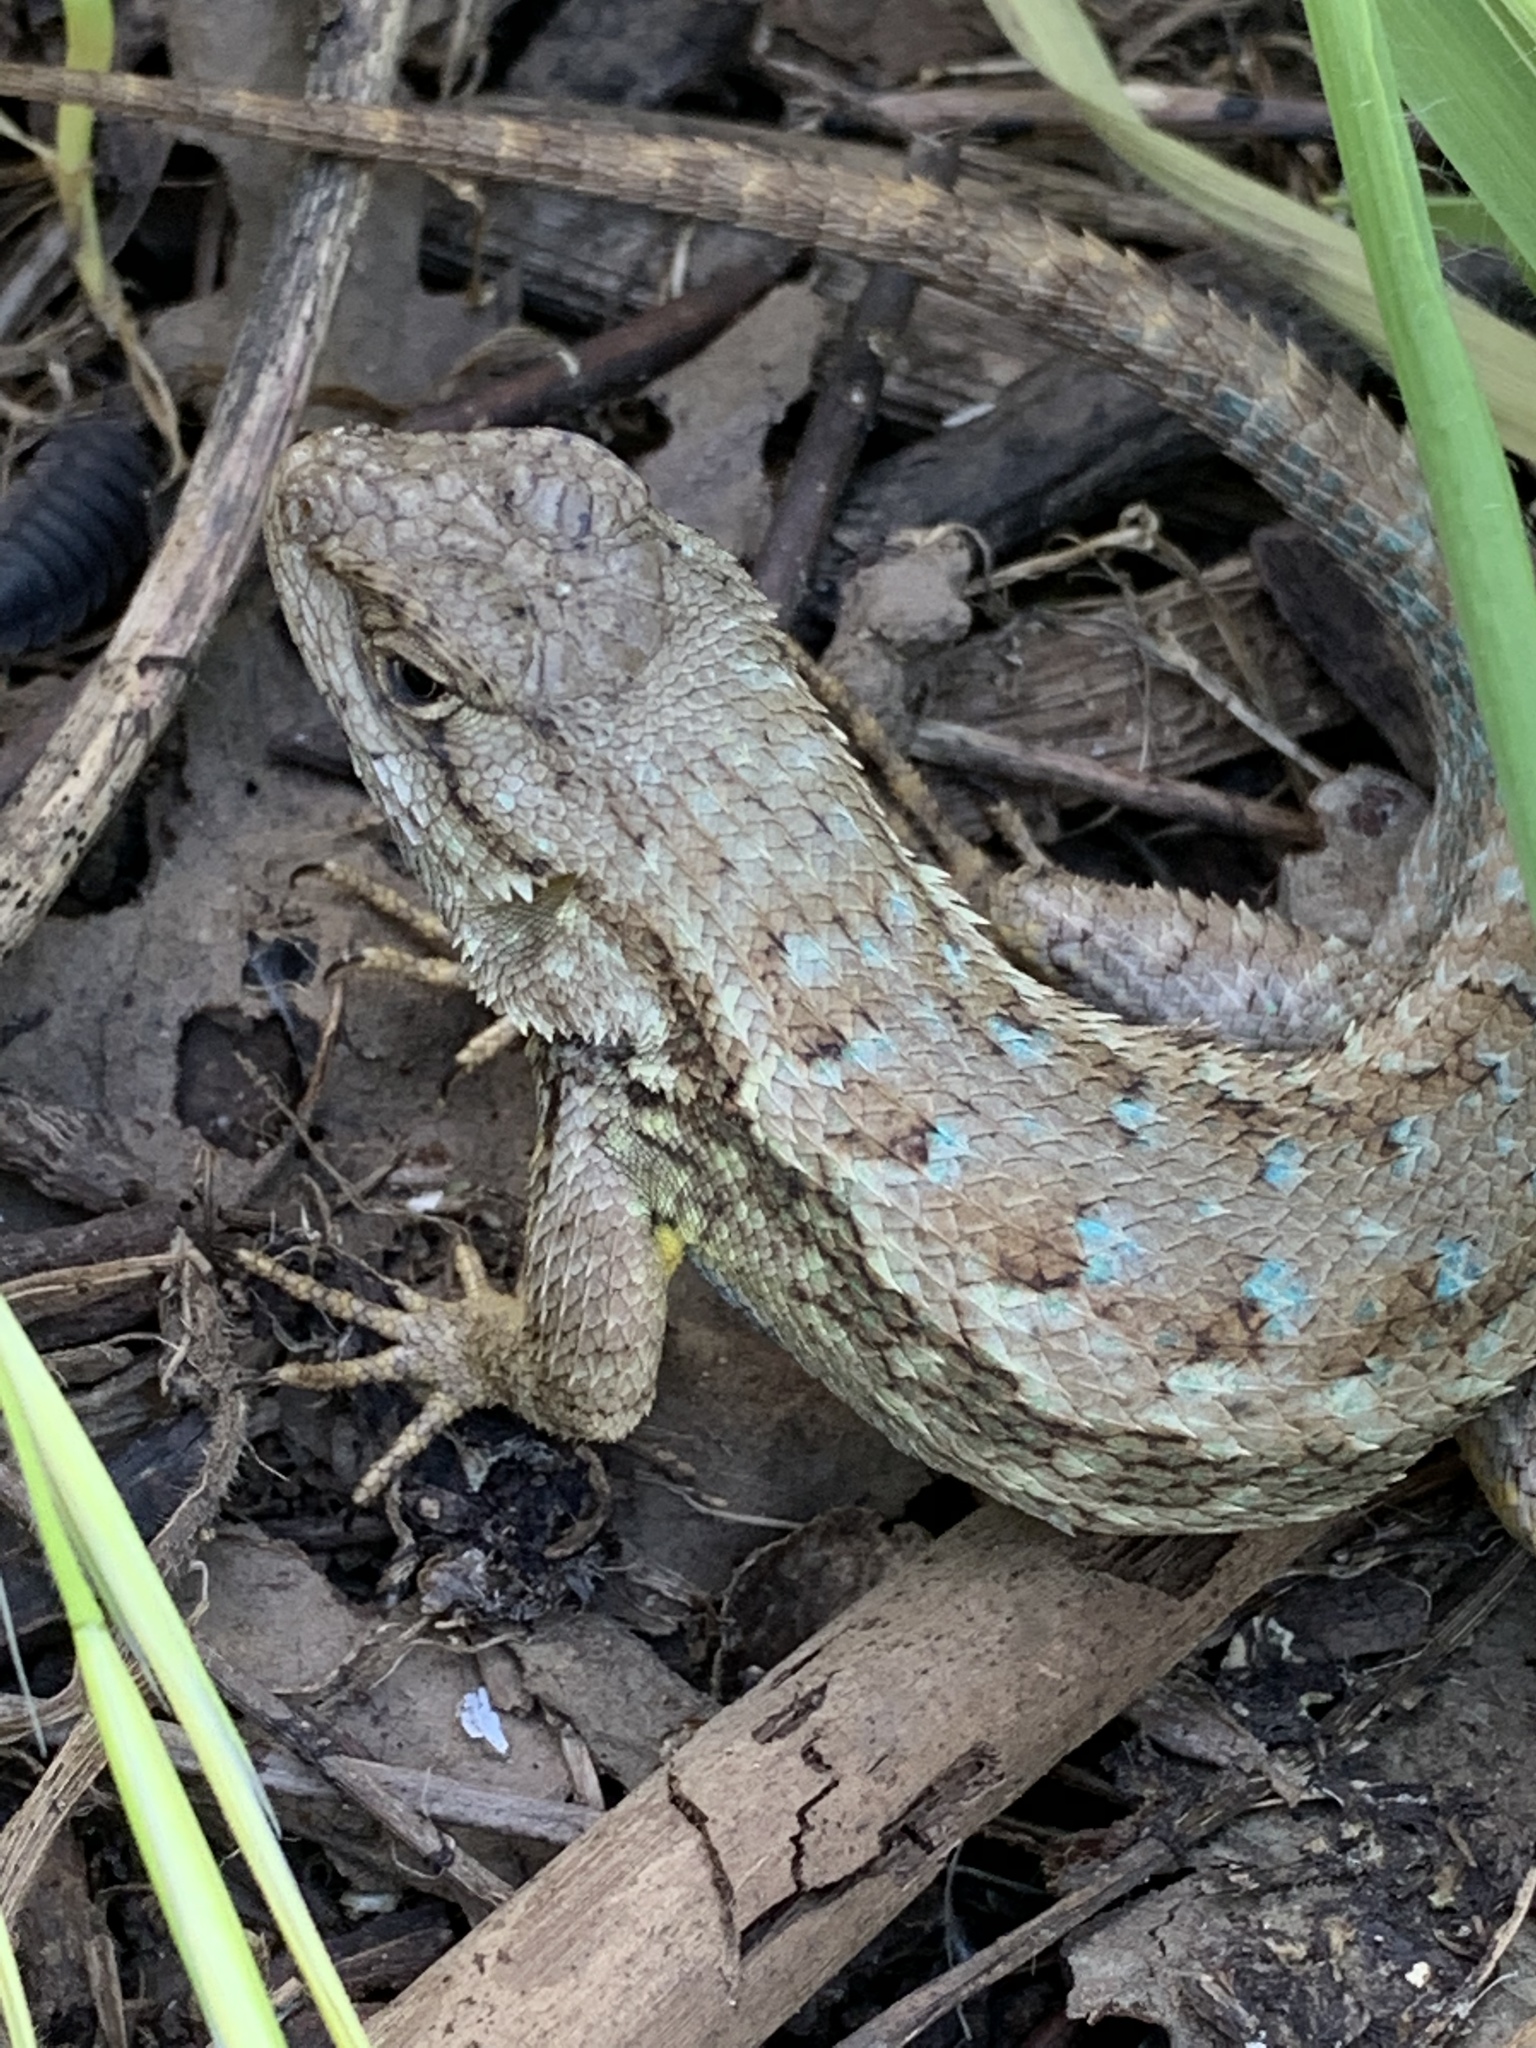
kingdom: Animalia
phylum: Chordata
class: Squamata
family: Phrynosomatidae
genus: Sceloporus
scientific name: Sceloporus occidentalis
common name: Western fence lizard
